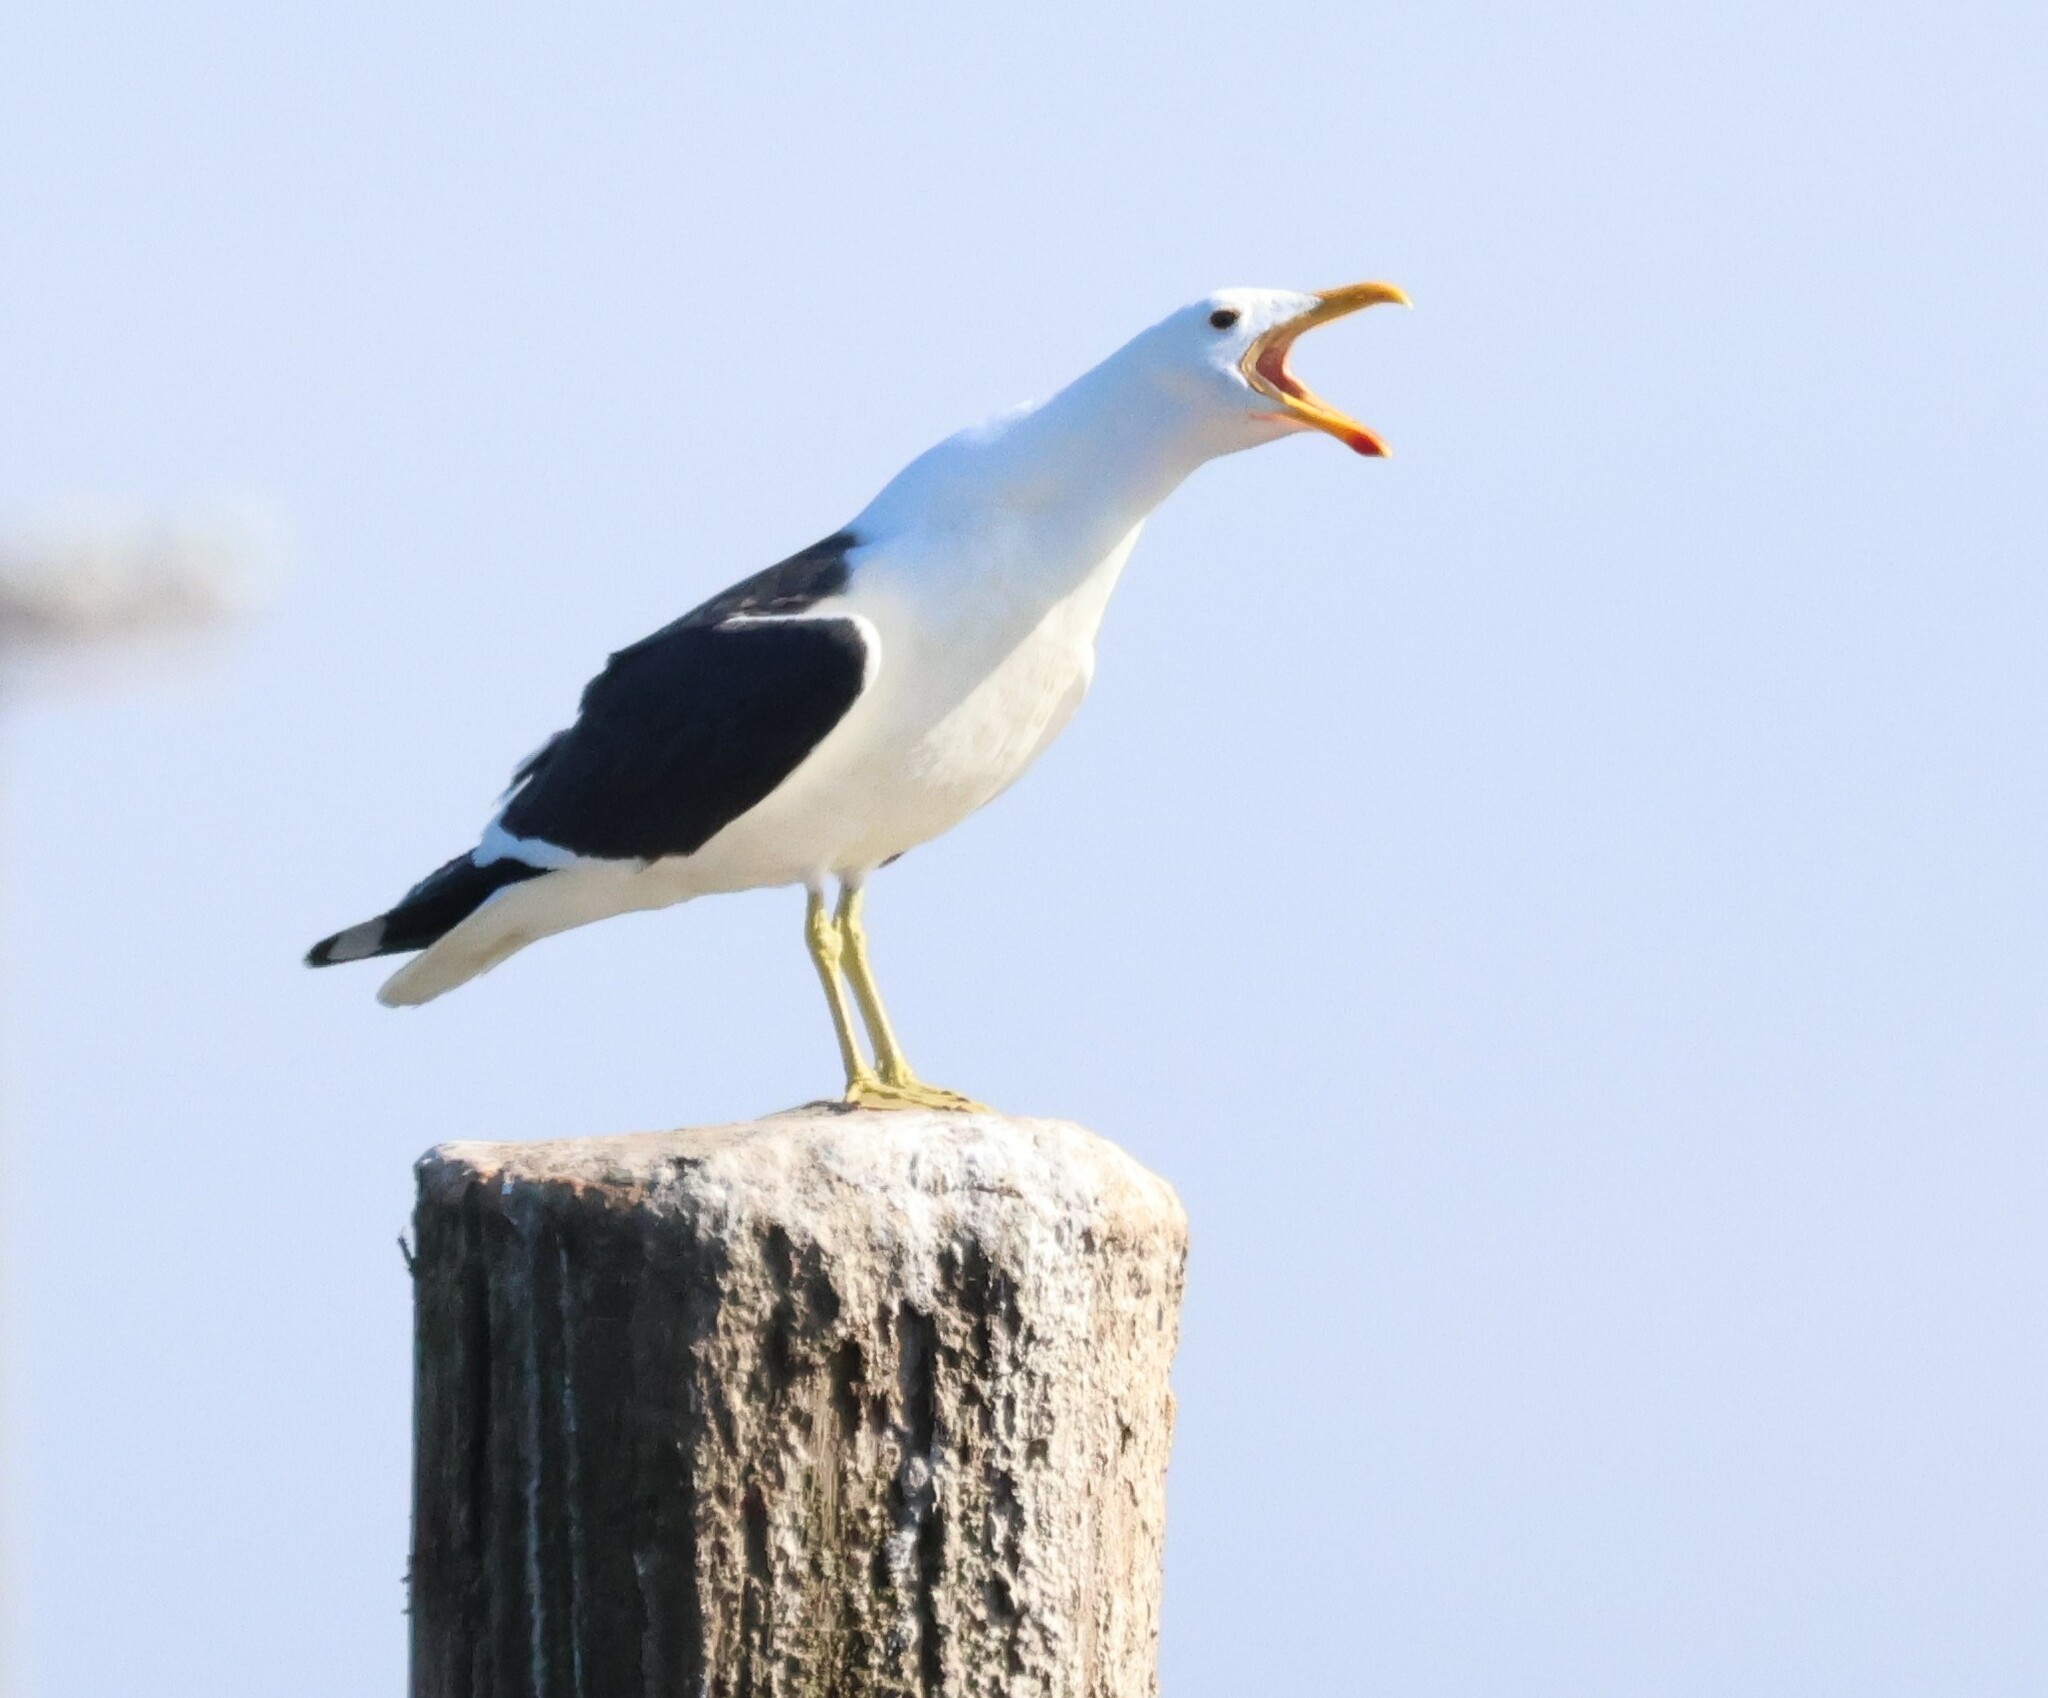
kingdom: Animalia
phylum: Chordata
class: Aves
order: Charadriiformes
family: Laridae
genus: Larus
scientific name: Larus dominicanus
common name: Kelp gull
